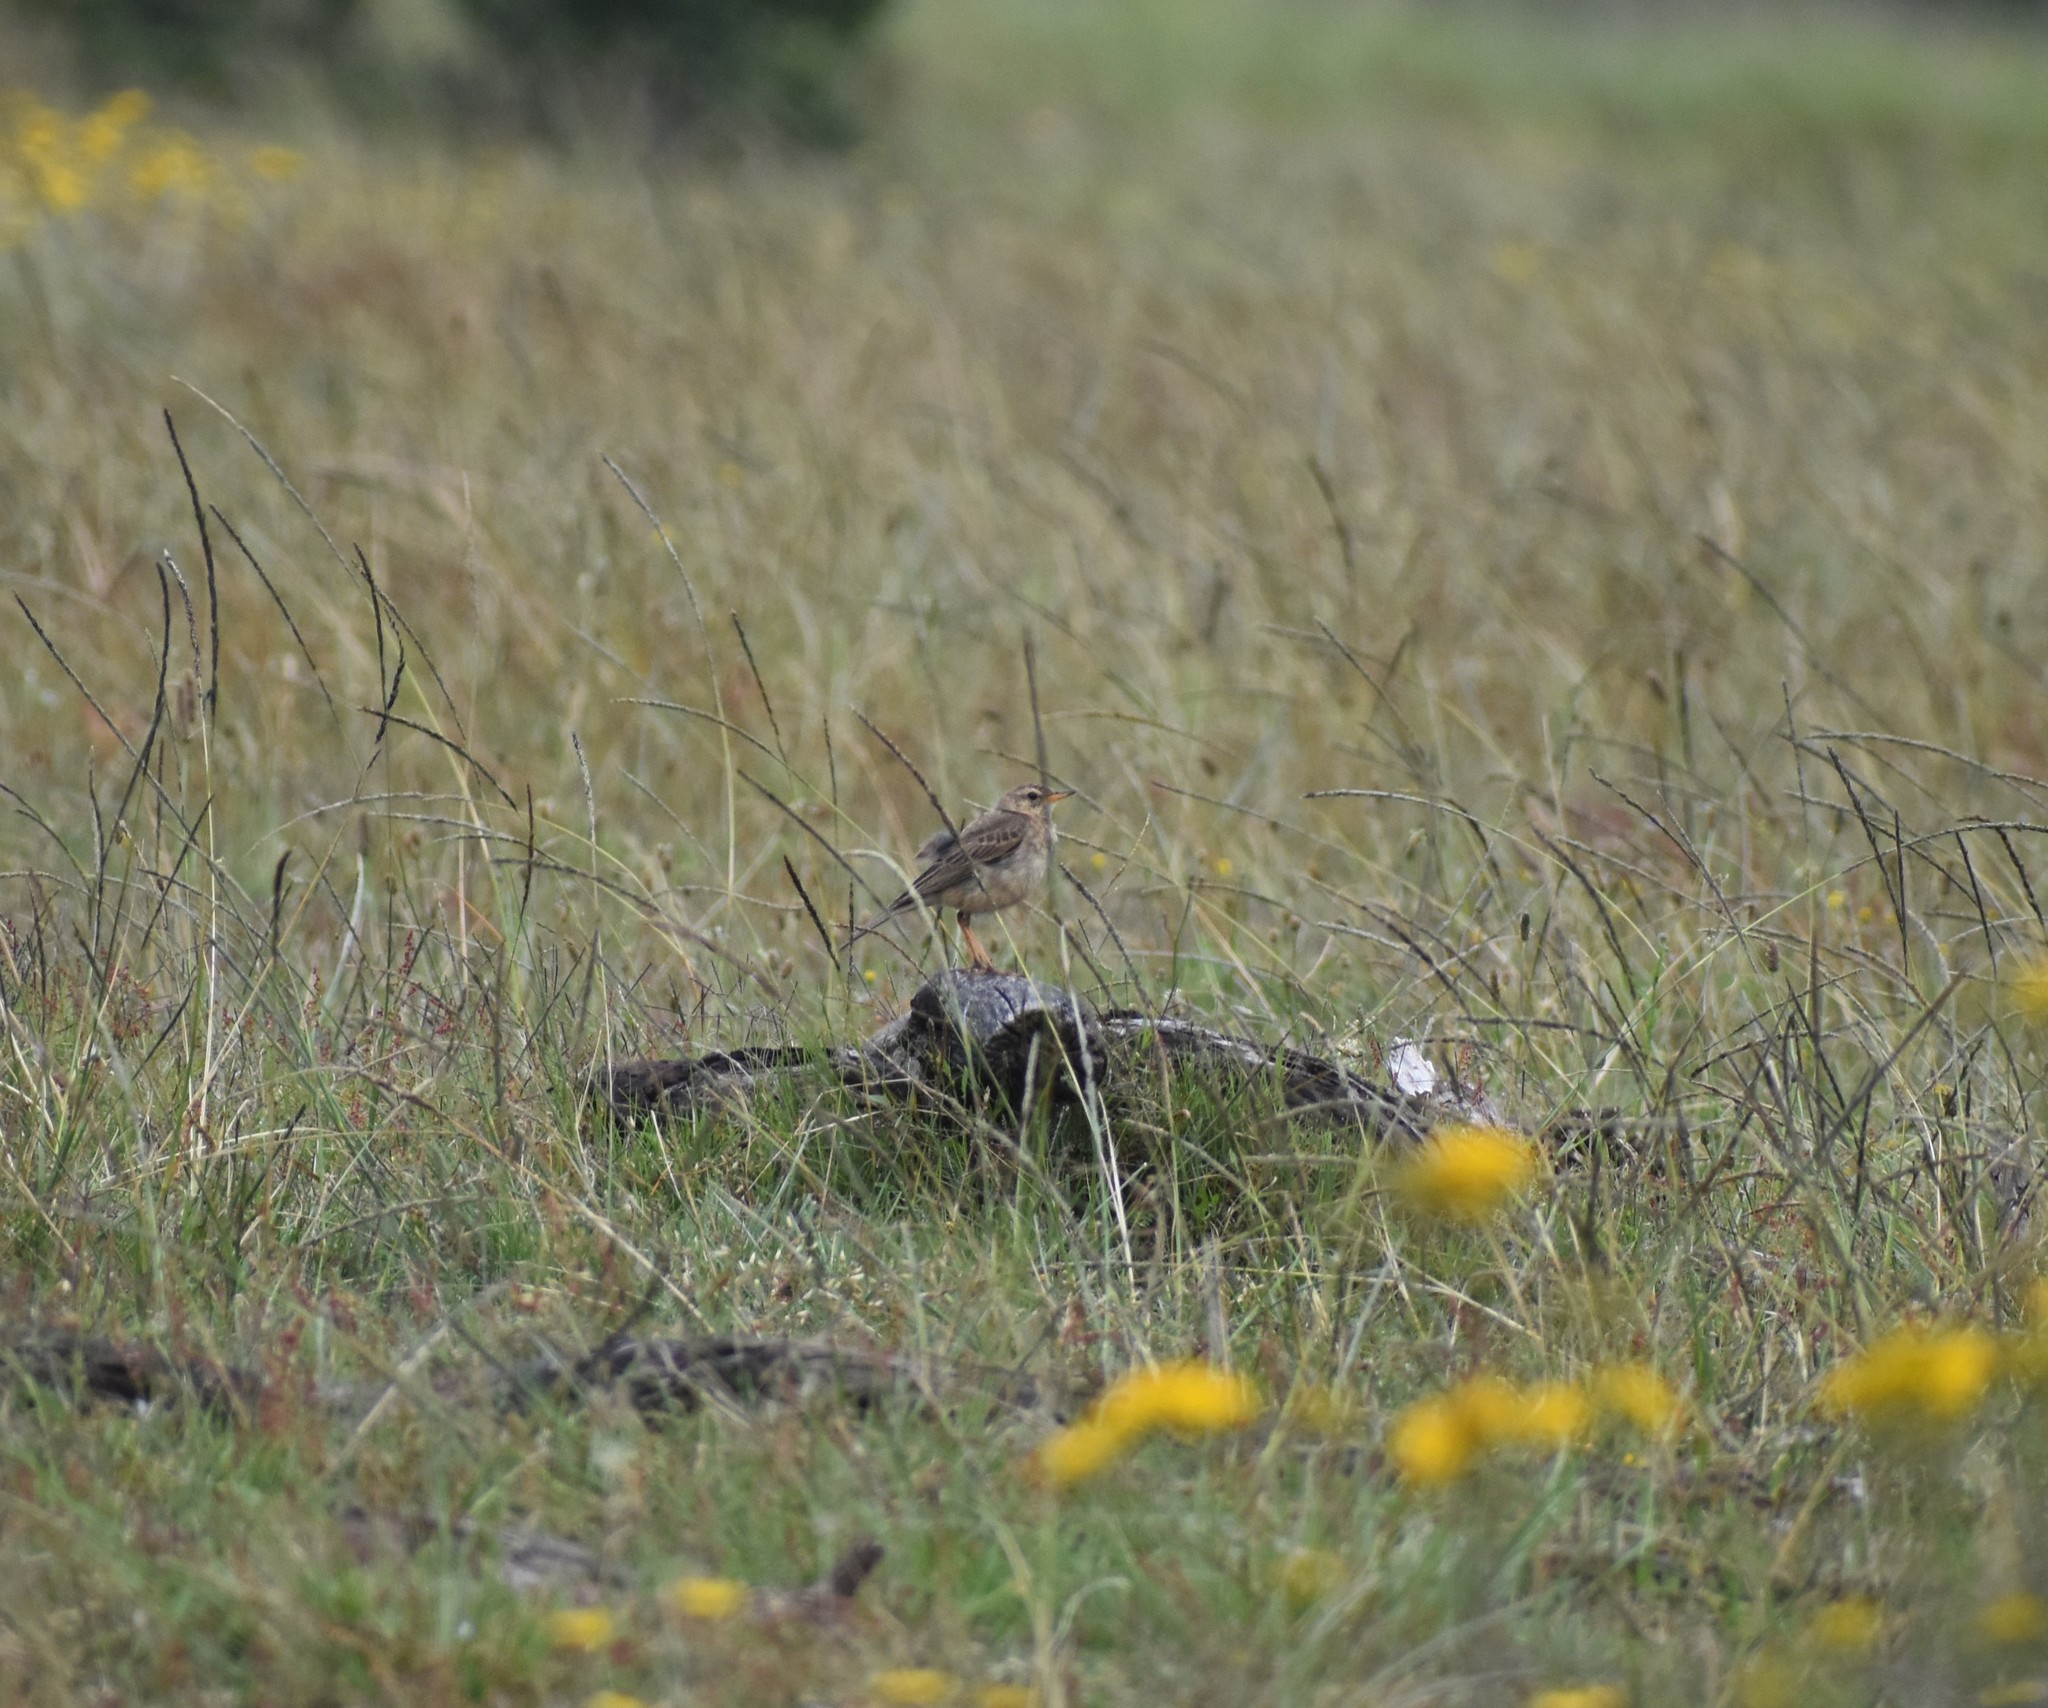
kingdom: Animalia
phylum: Chordata
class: Aves
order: Passeriformes
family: Motacillidae
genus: Anthus
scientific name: Anthus leucophrys
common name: Plain-backed pipit
